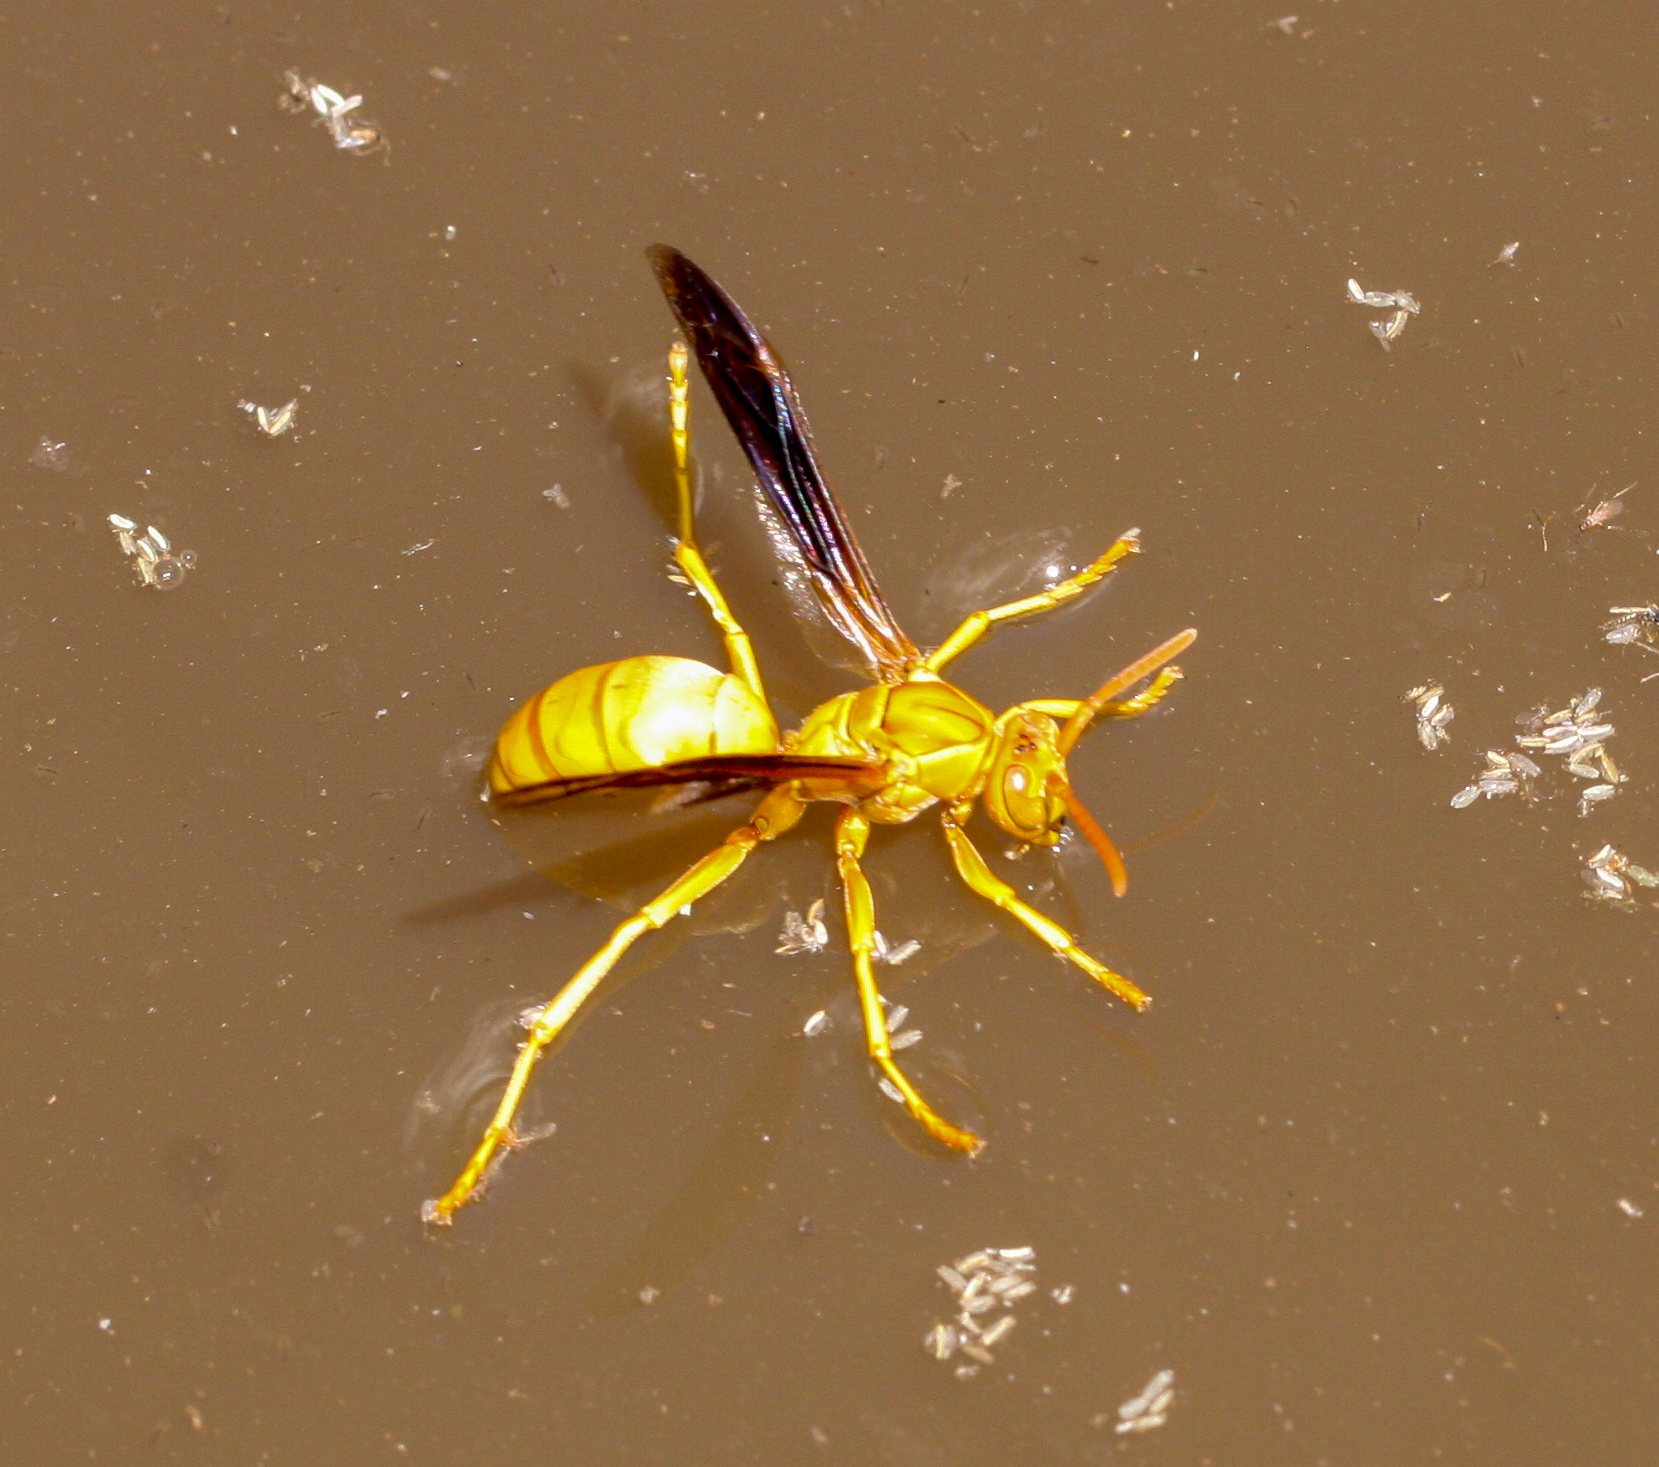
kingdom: Animalia
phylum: Arthropoda
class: Insecta
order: Hymenoptera
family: Eumenidae
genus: Polistes
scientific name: Polistes flavus
